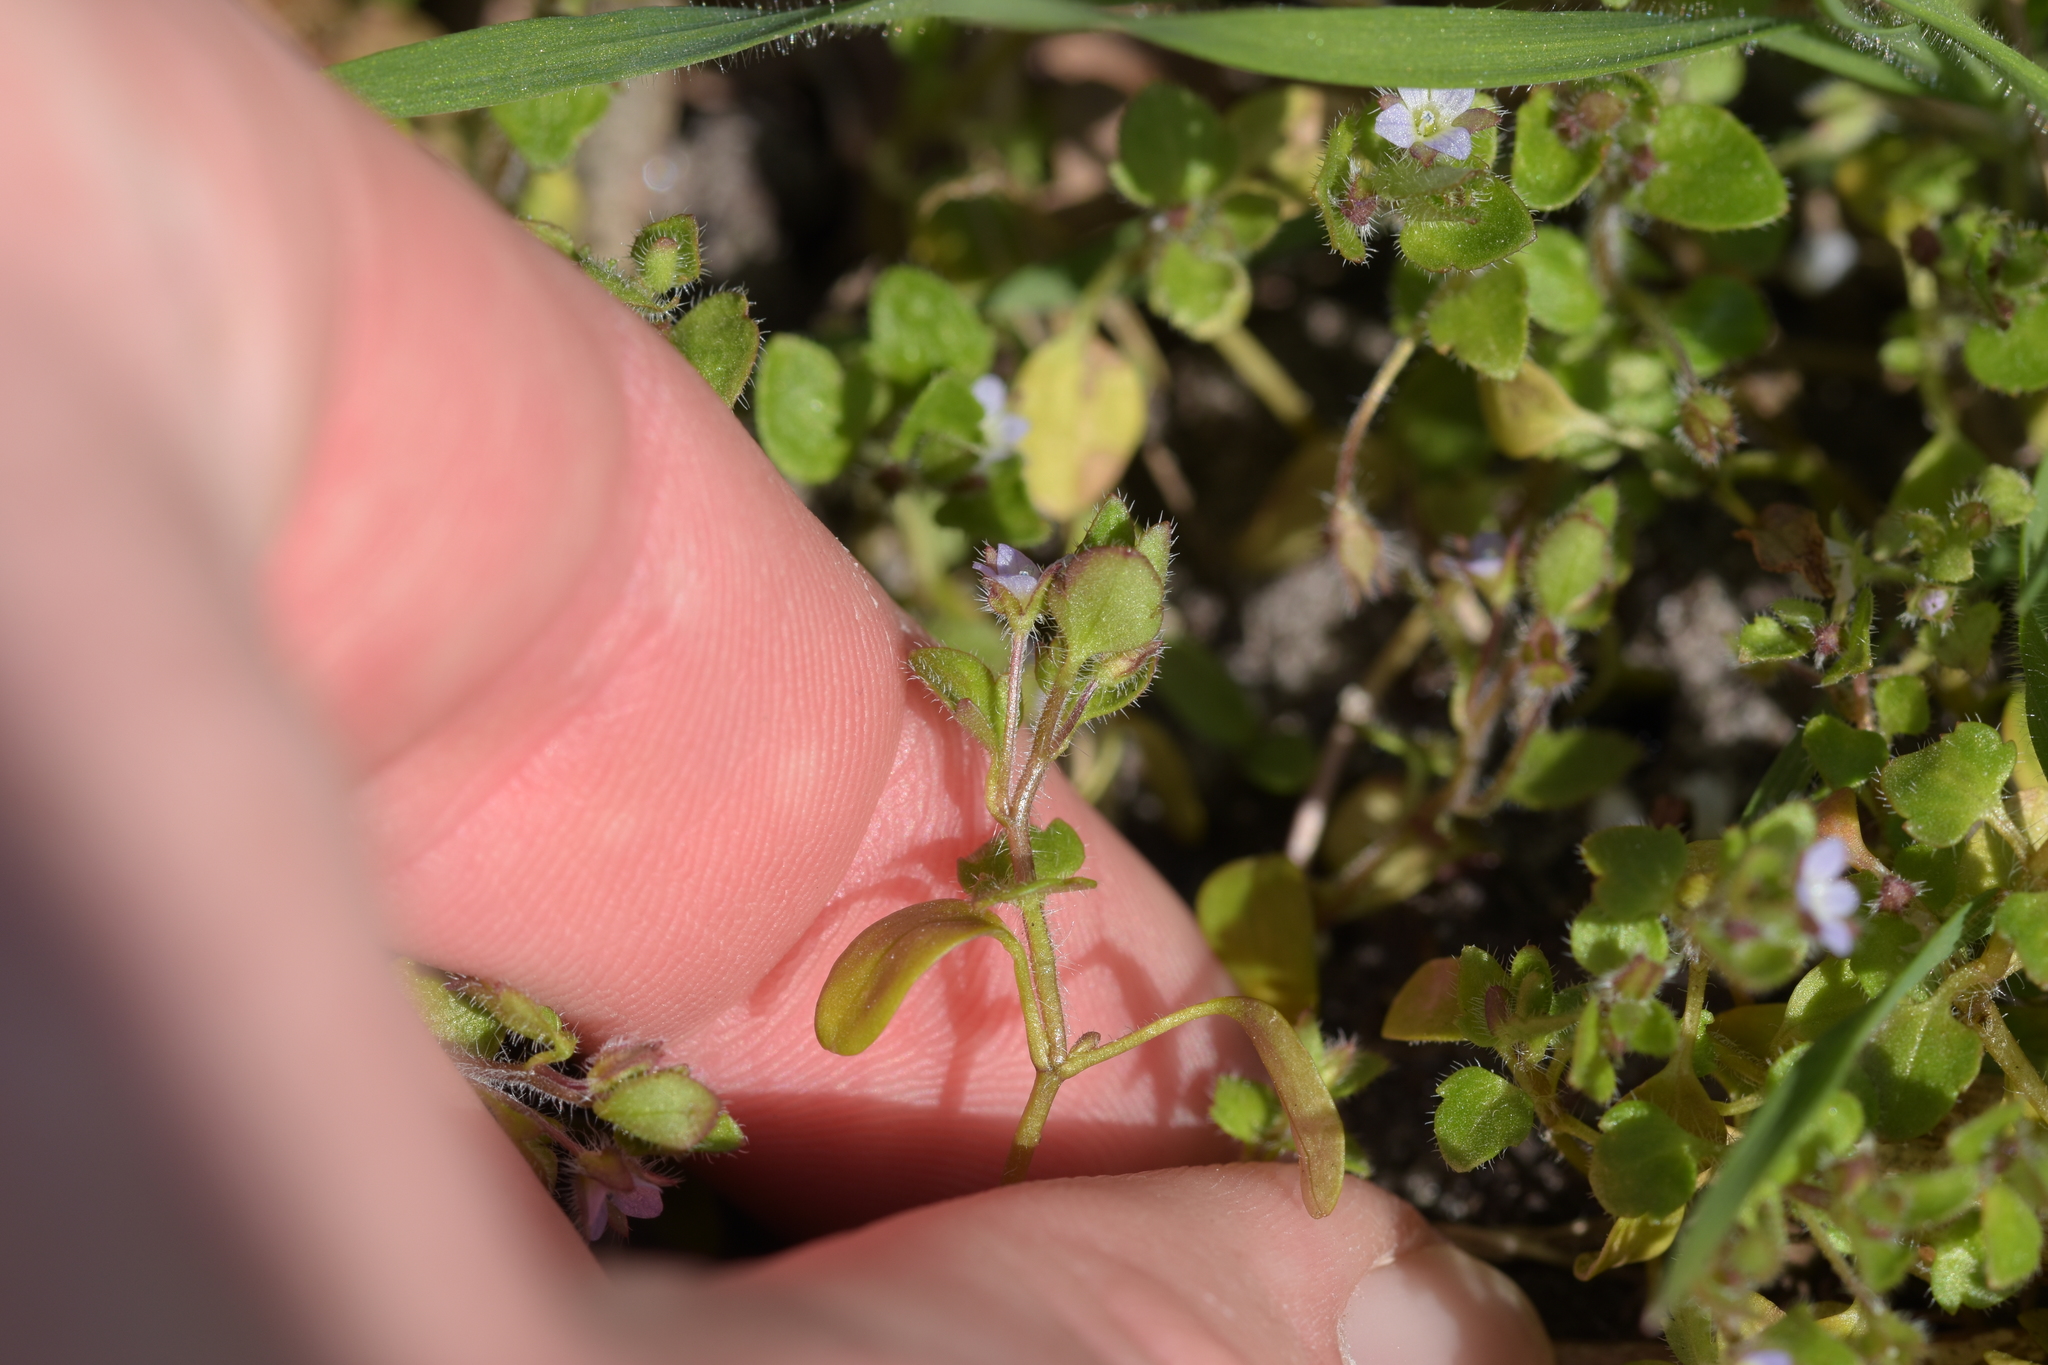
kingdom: Plantae
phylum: Tracheophyta
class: Magnoliopsida
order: Lamiales
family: Plantaginaceae
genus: Veronica
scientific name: Veronica sublobata
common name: False ivy-leaved speedwell
